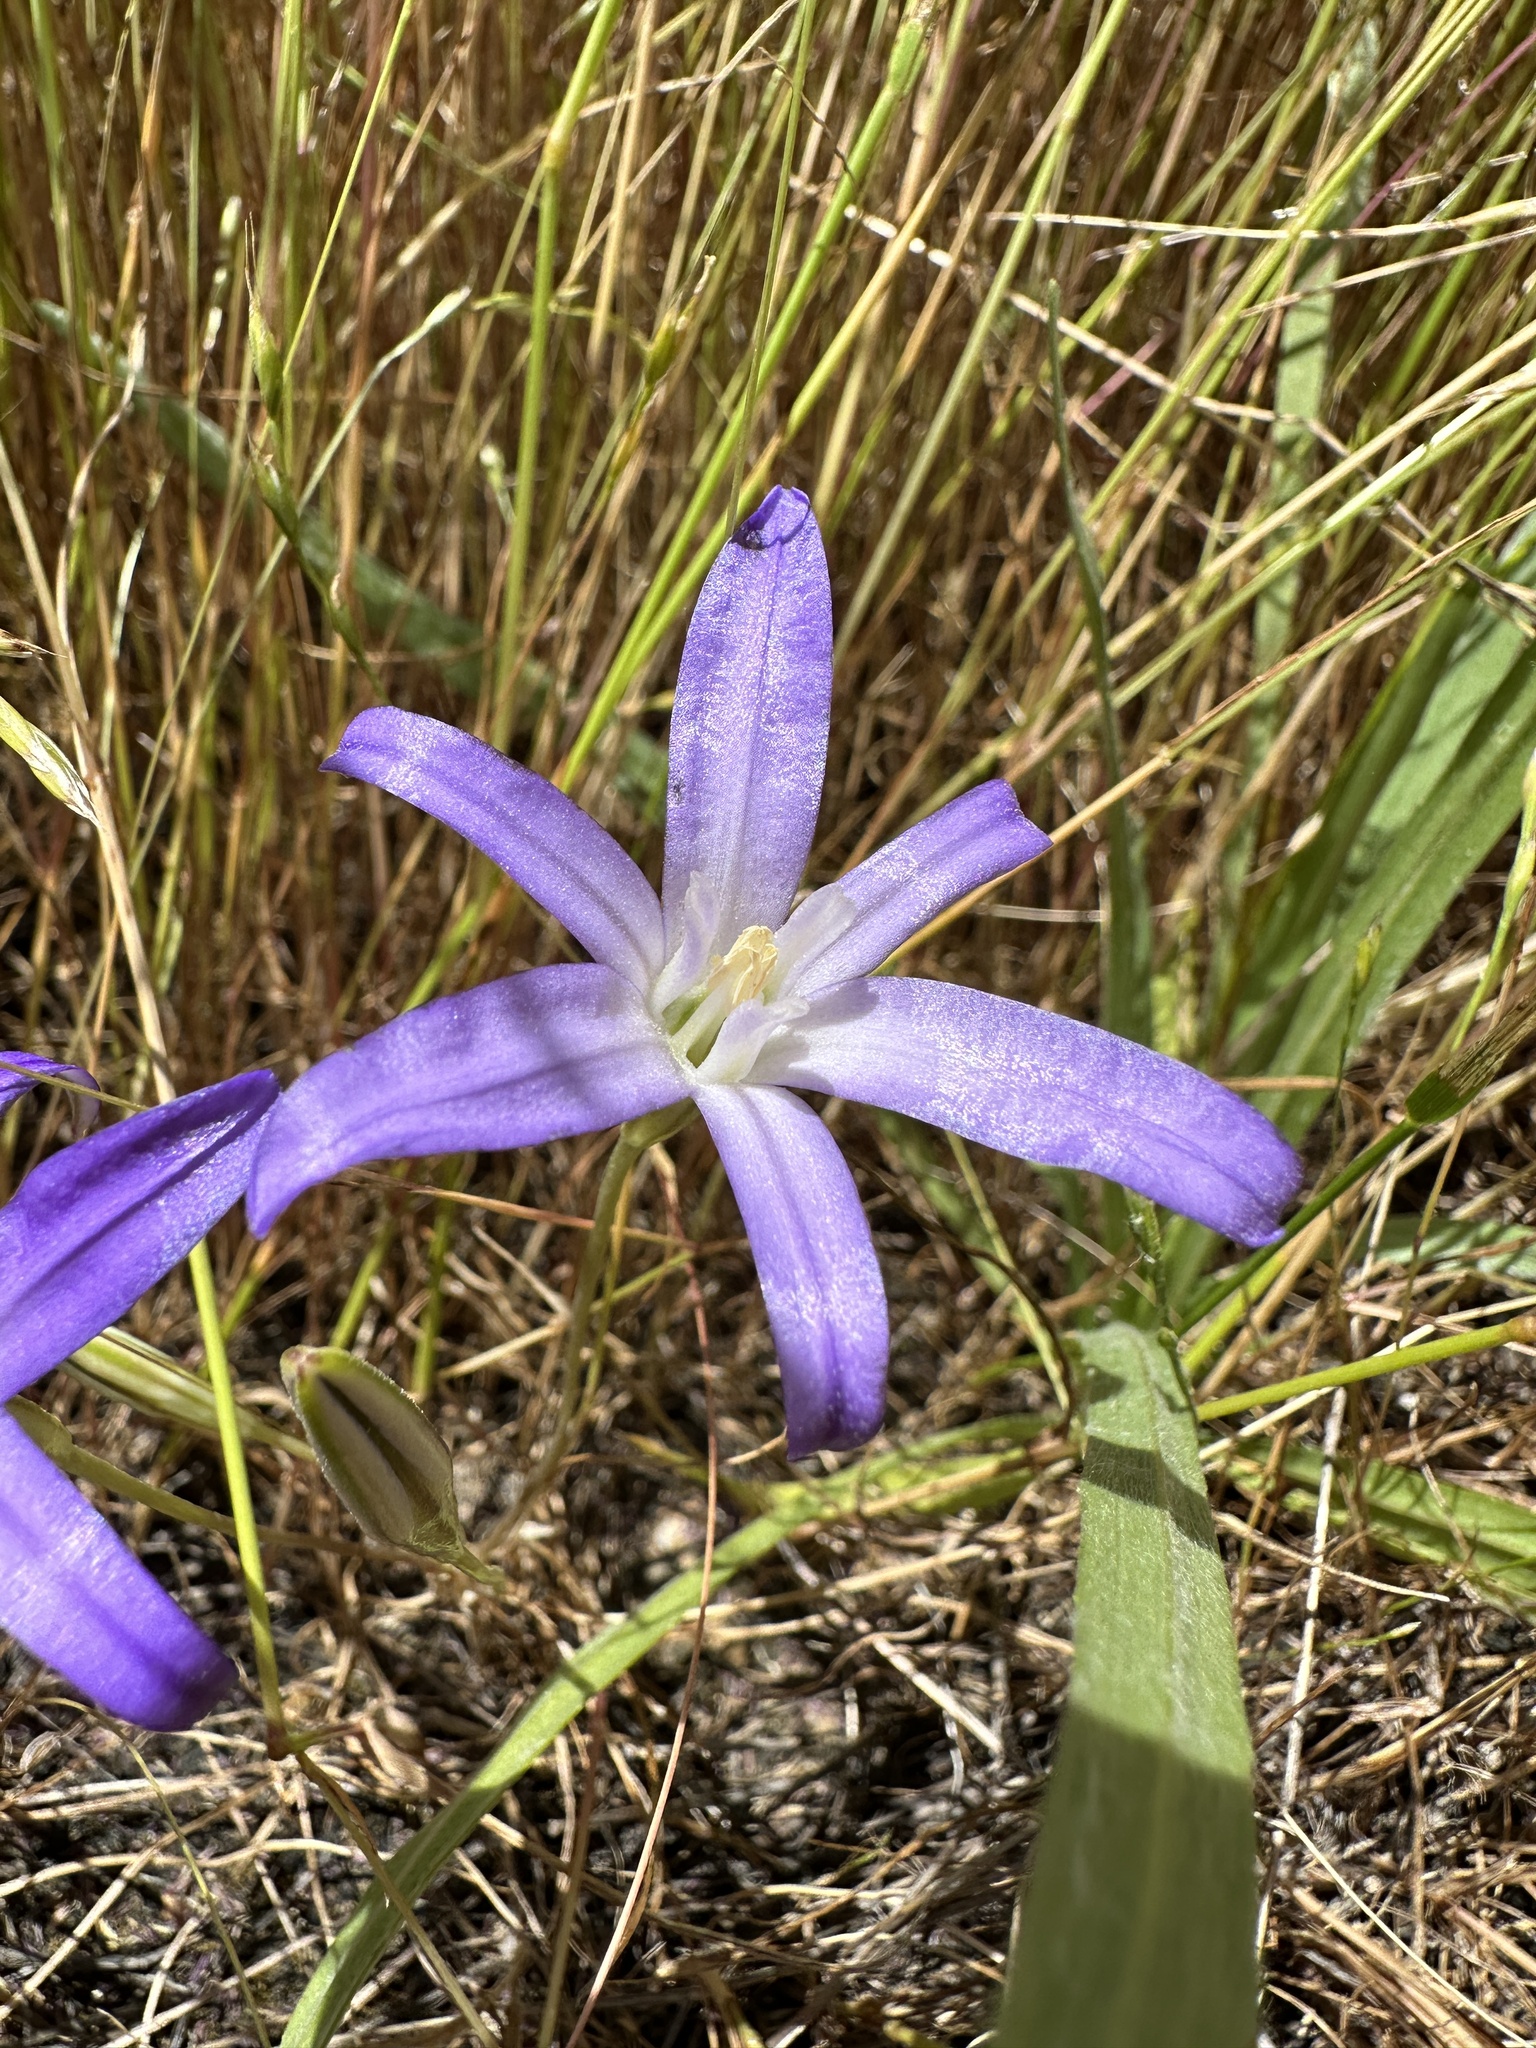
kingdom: Plantae
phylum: Tracheophyta
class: Liliopsida
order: Asparagales
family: Asparagaceae
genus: Brodiaea
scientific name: Brodiaea terrestris
